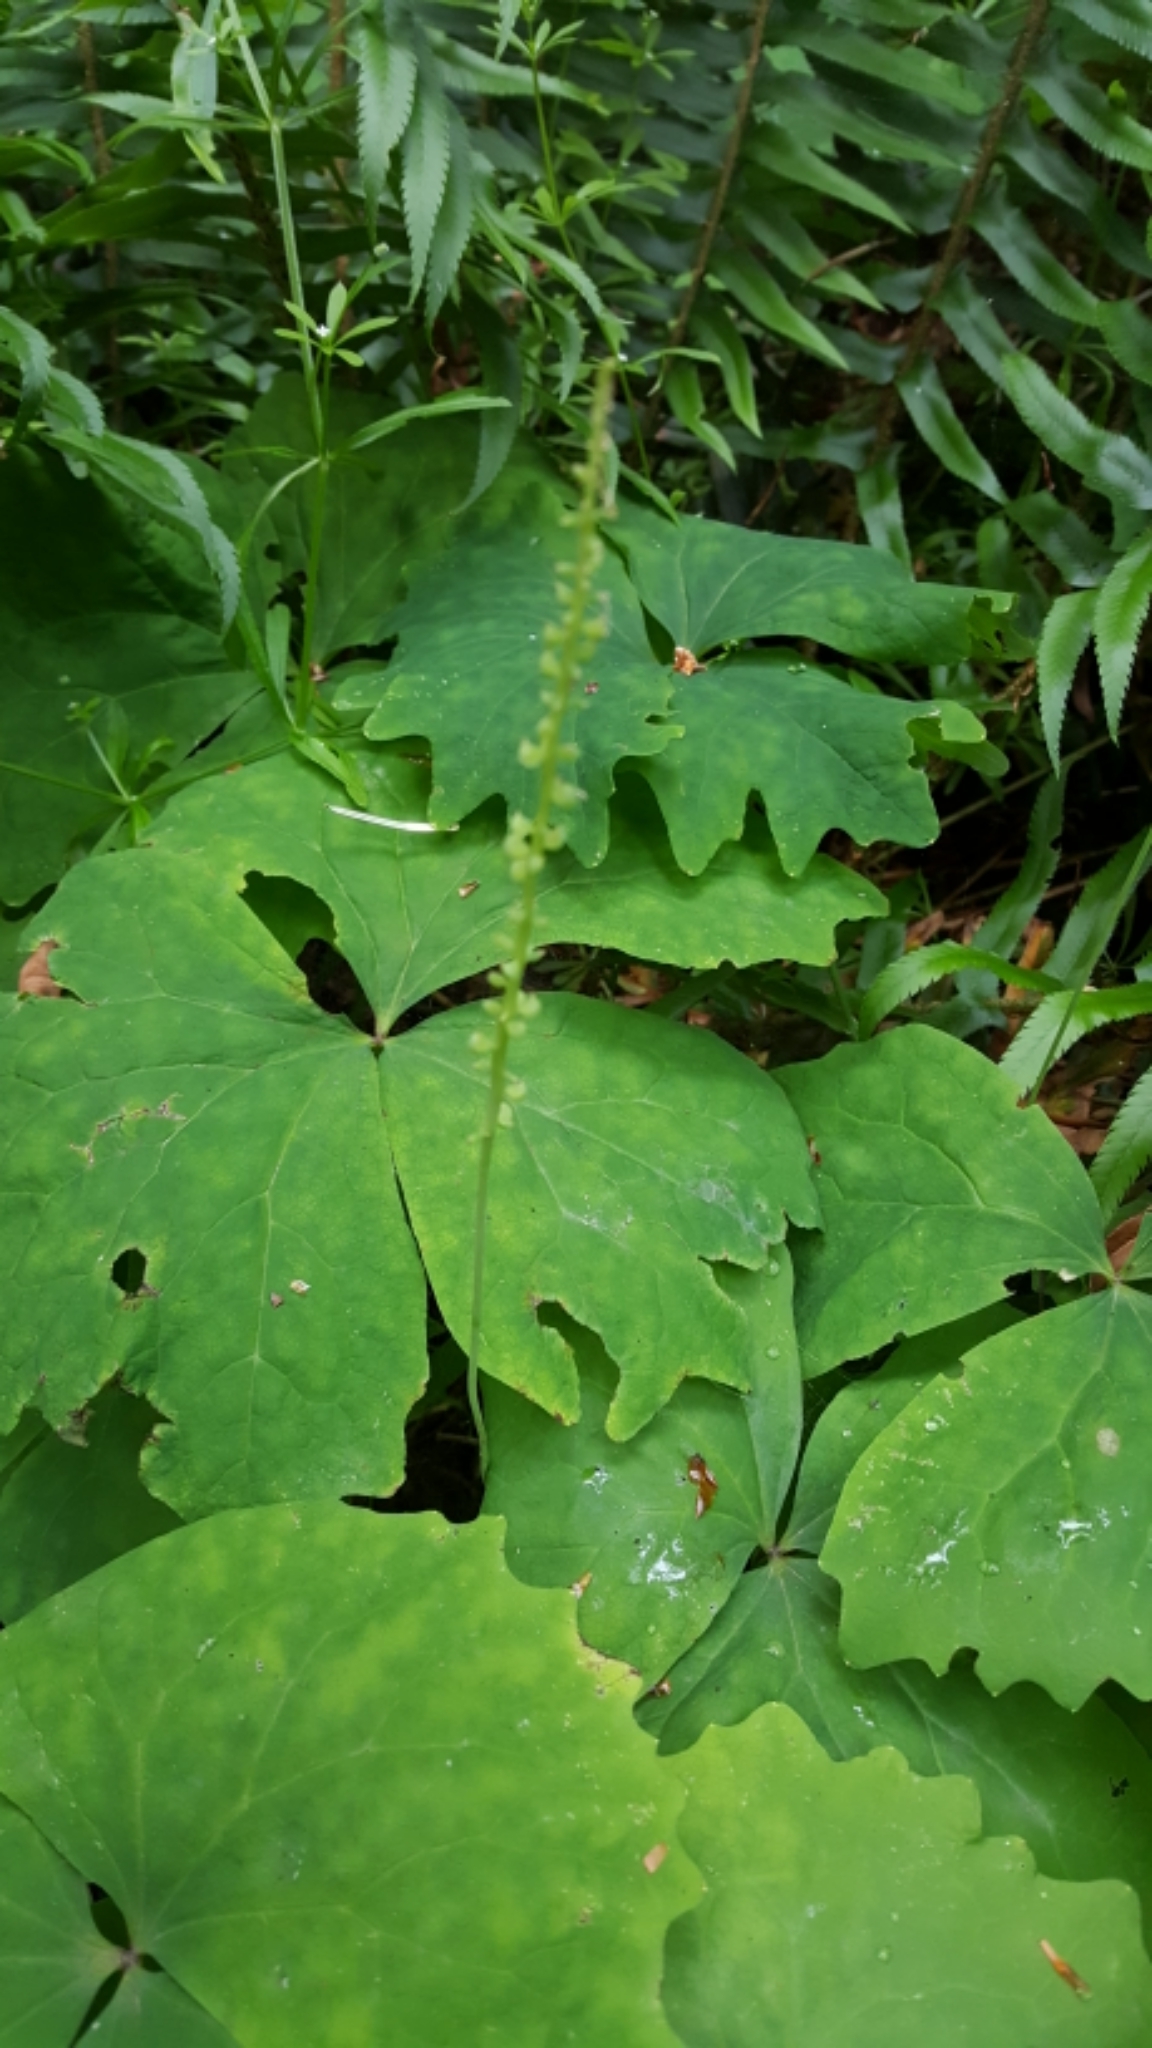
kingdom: Plantae
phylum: Tracheophyta
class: Magnoliopsida
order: Ranunculales
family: Berberidaceae
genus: Achlys
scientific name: Achlys triphylla
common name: Vanilla-leaf
